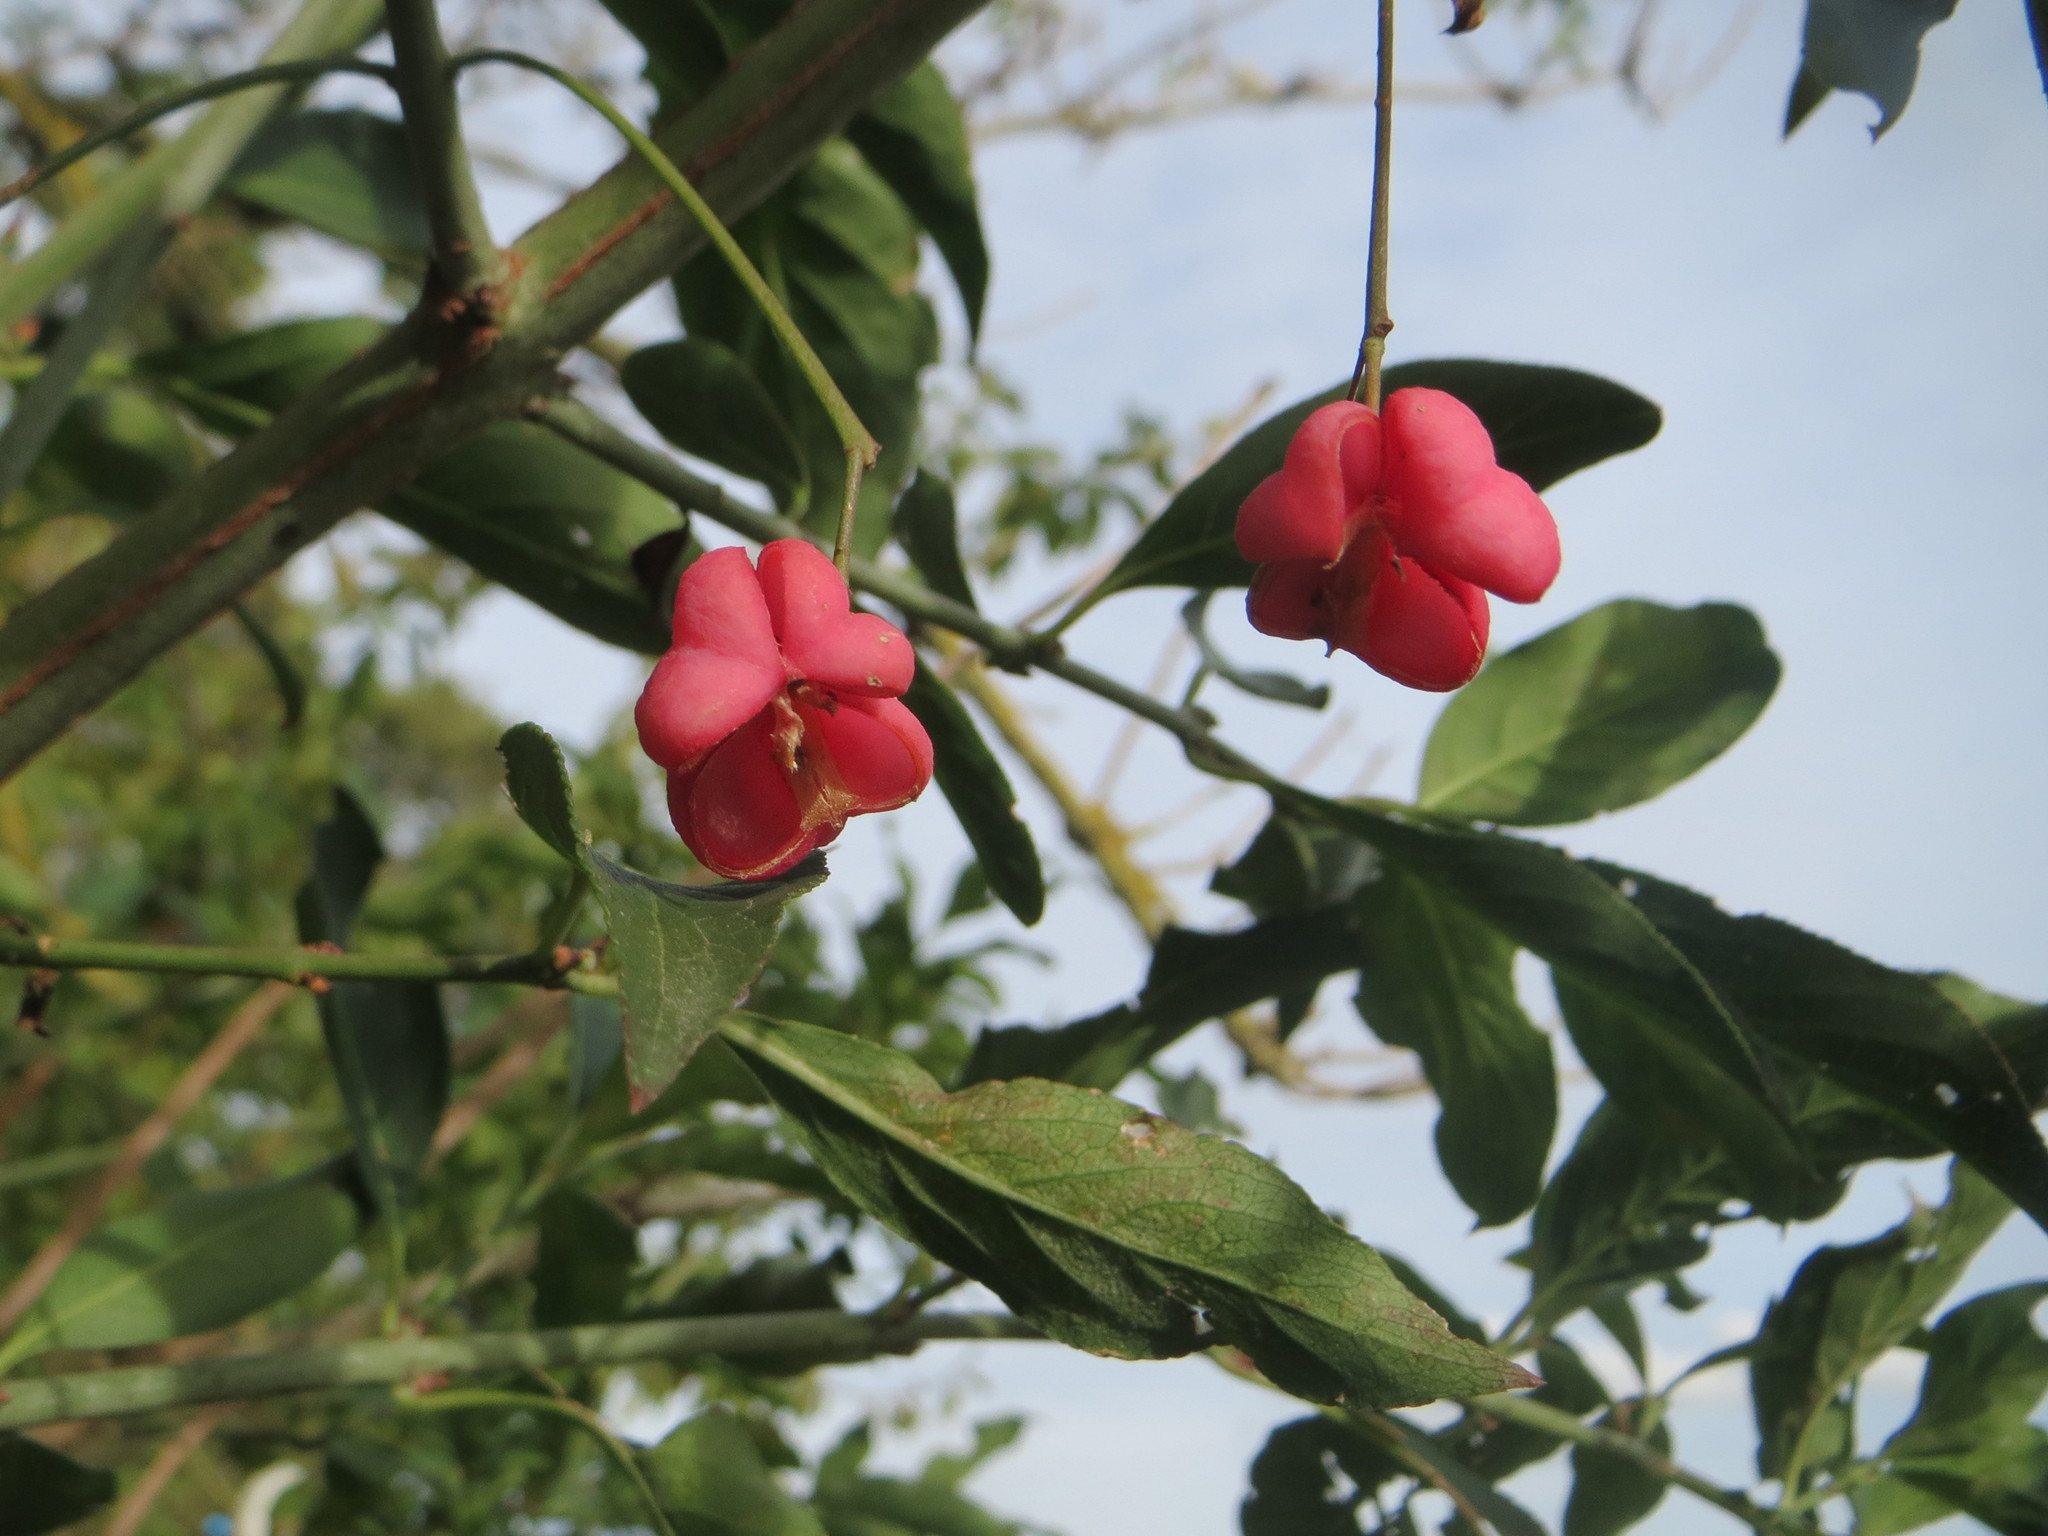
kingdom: Plantae
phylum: Tracheophyta
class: Magnoliopsida
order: Celastrales
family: Celastraceae
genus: Euonymus
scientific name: Euonymus europaeus
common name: Spindle
